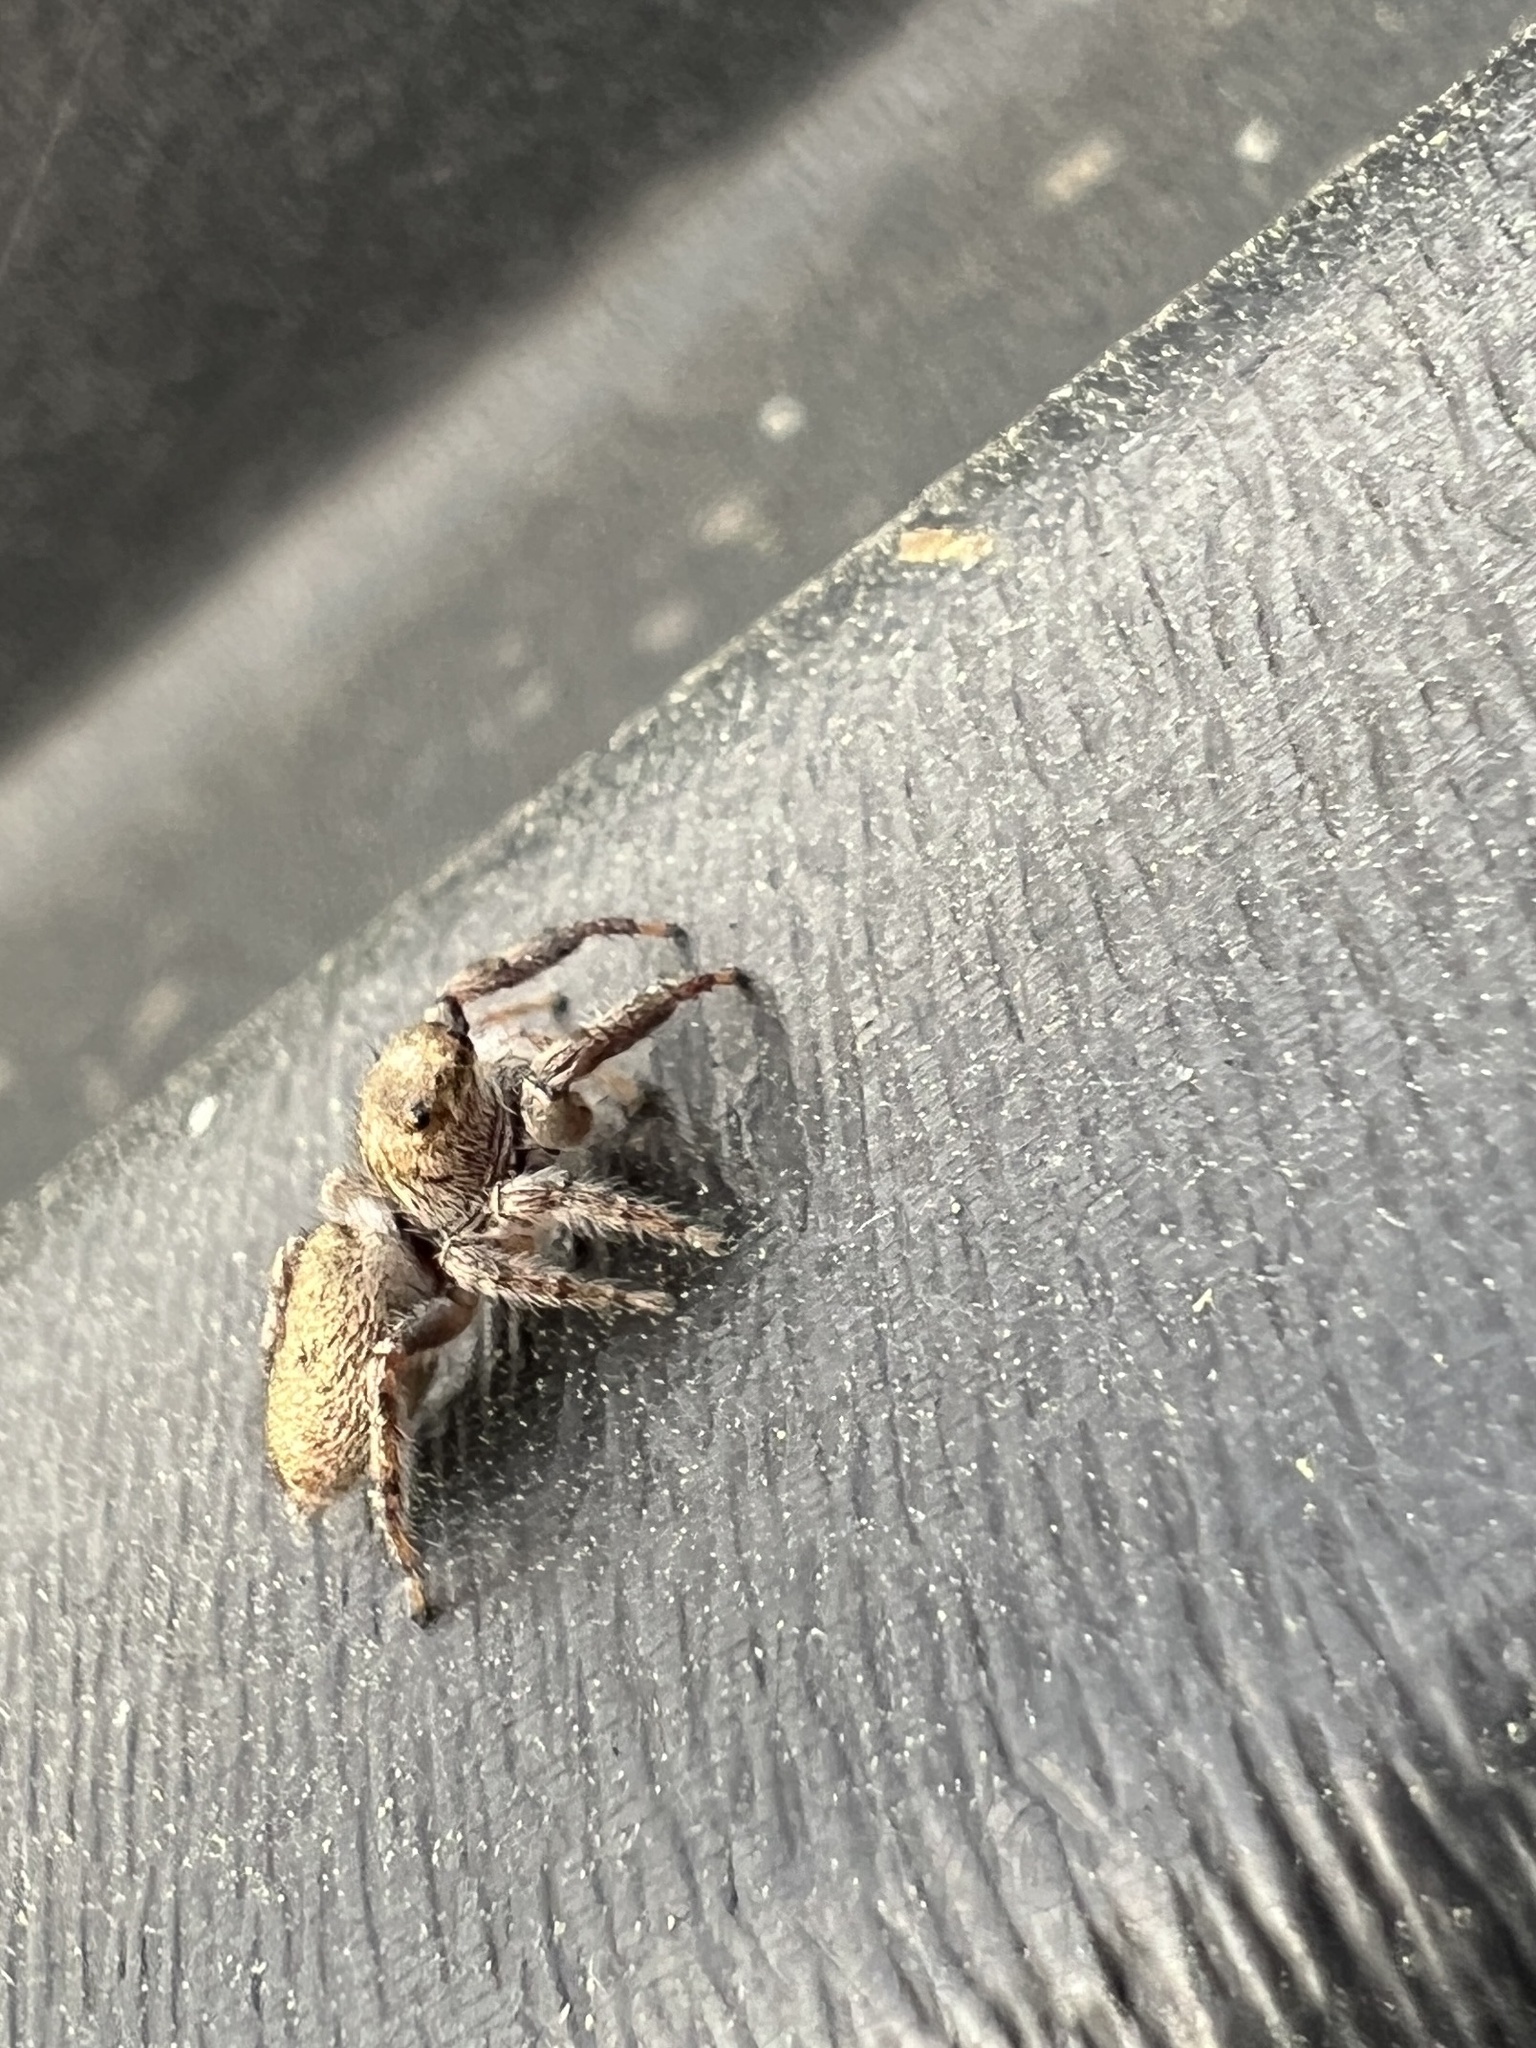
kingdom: Animalia
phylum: Arthropoda
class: Arachnida
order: Araneae
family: Salticidae
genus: Eris
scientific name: Eris militaris
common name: Bronze jumper
